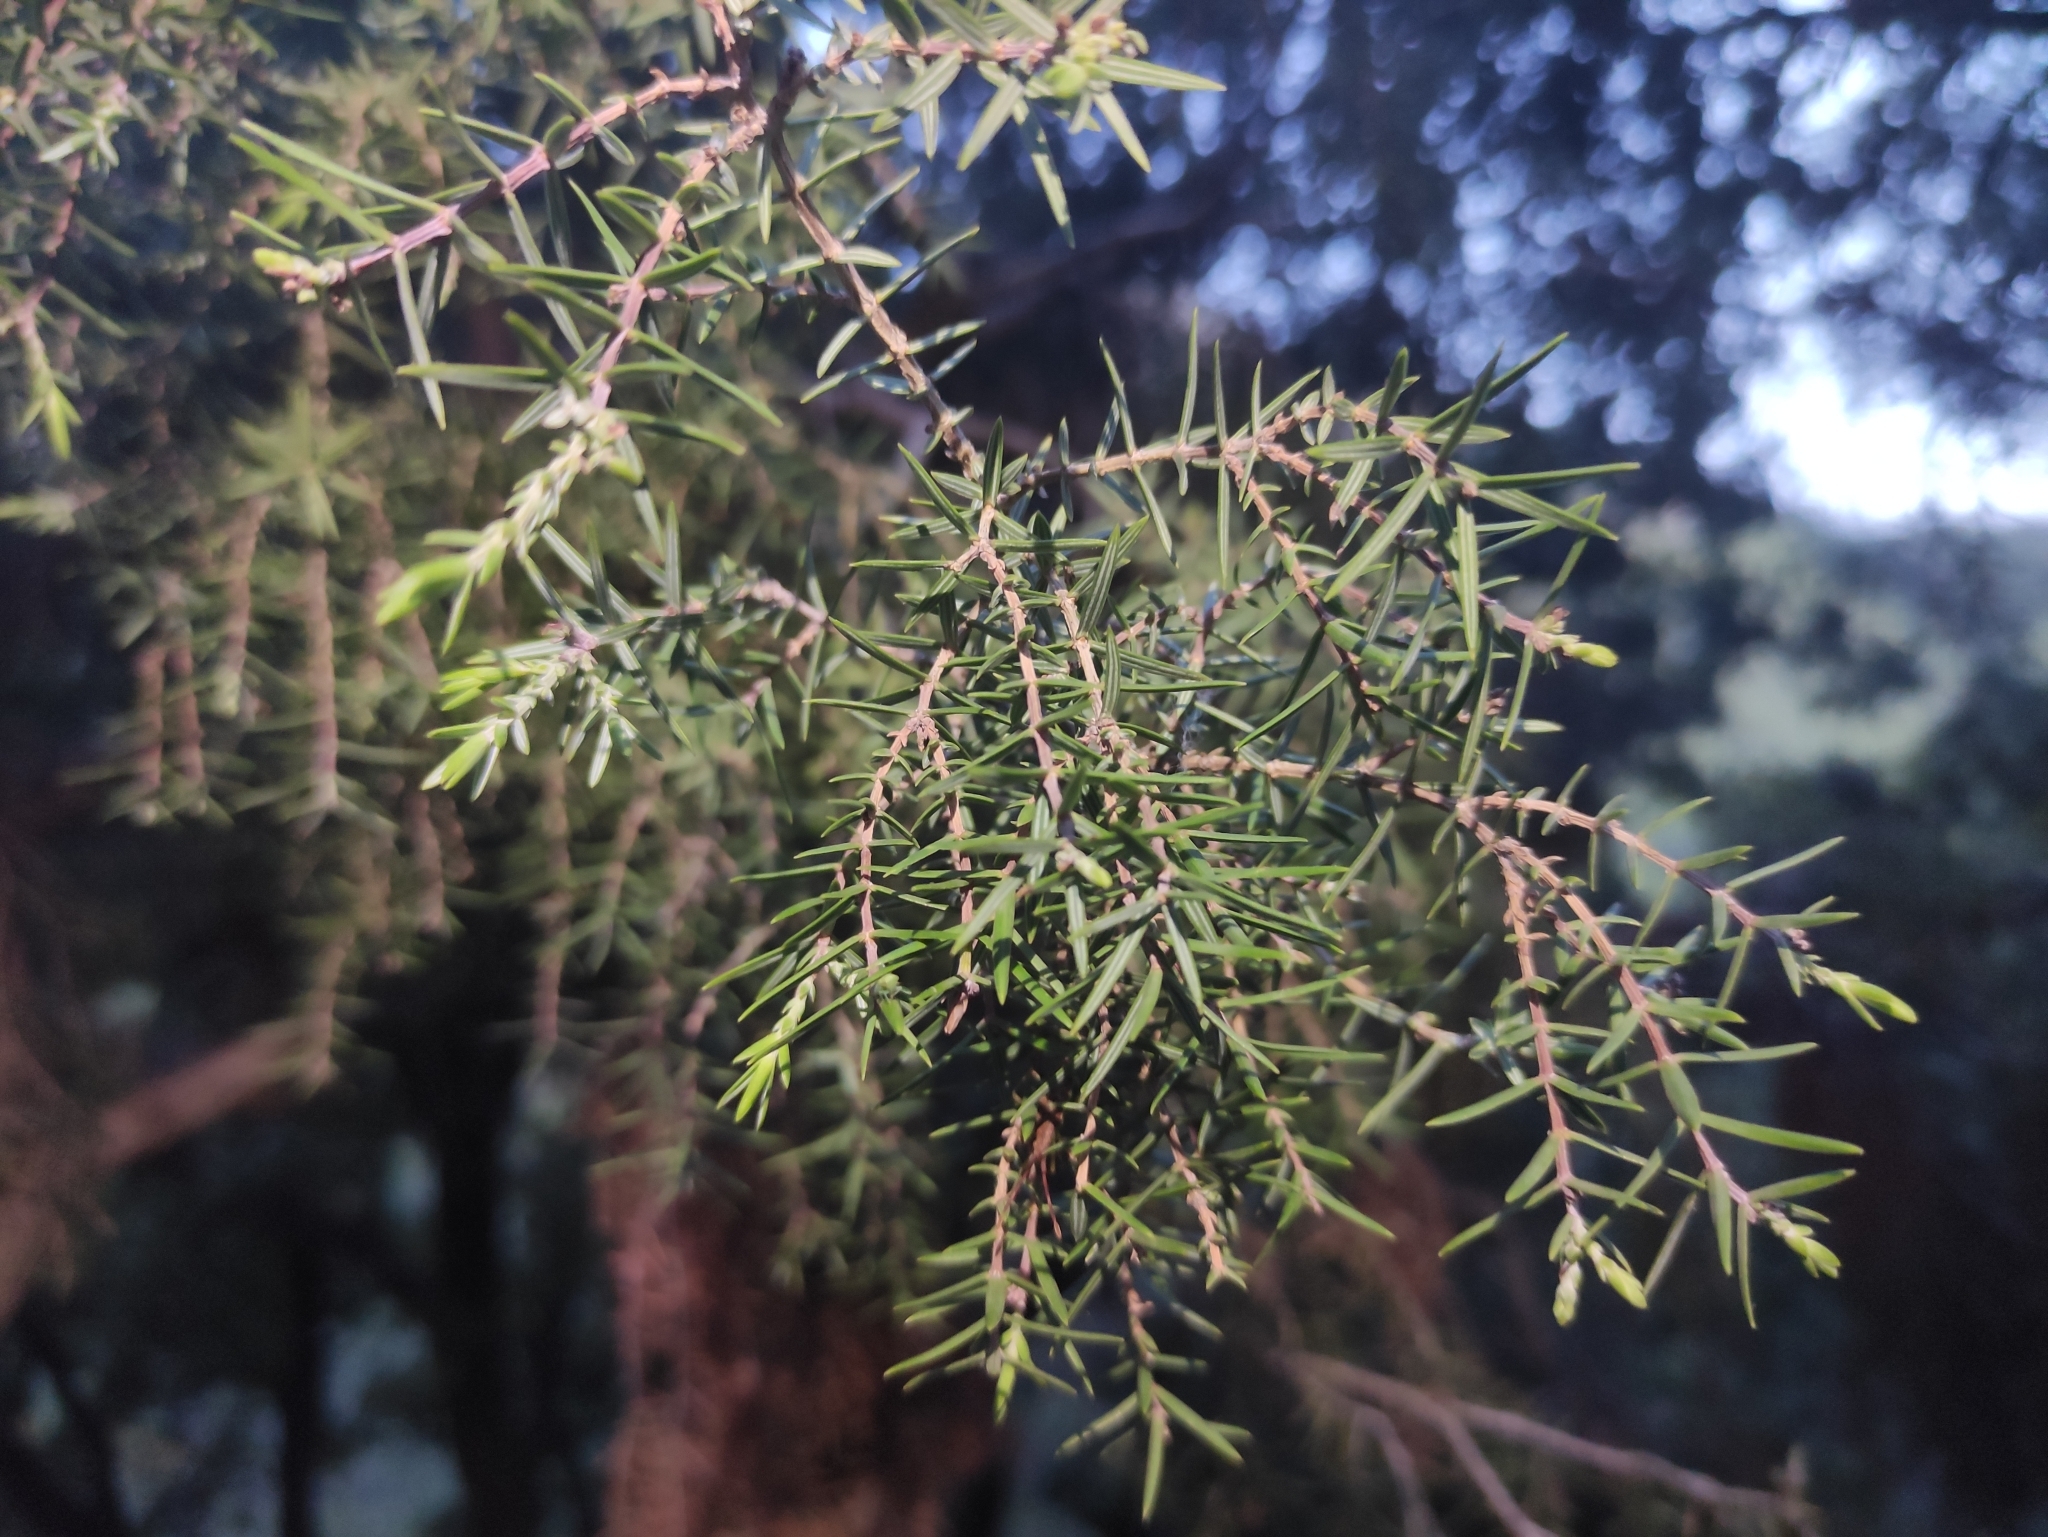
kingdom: Plantae
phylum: Tracheophyta
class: Pinopsida
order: Pinales
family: Cupressaceae
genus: Juniperus
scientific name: Juniperus oxycedrus
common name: Prickly juniper
